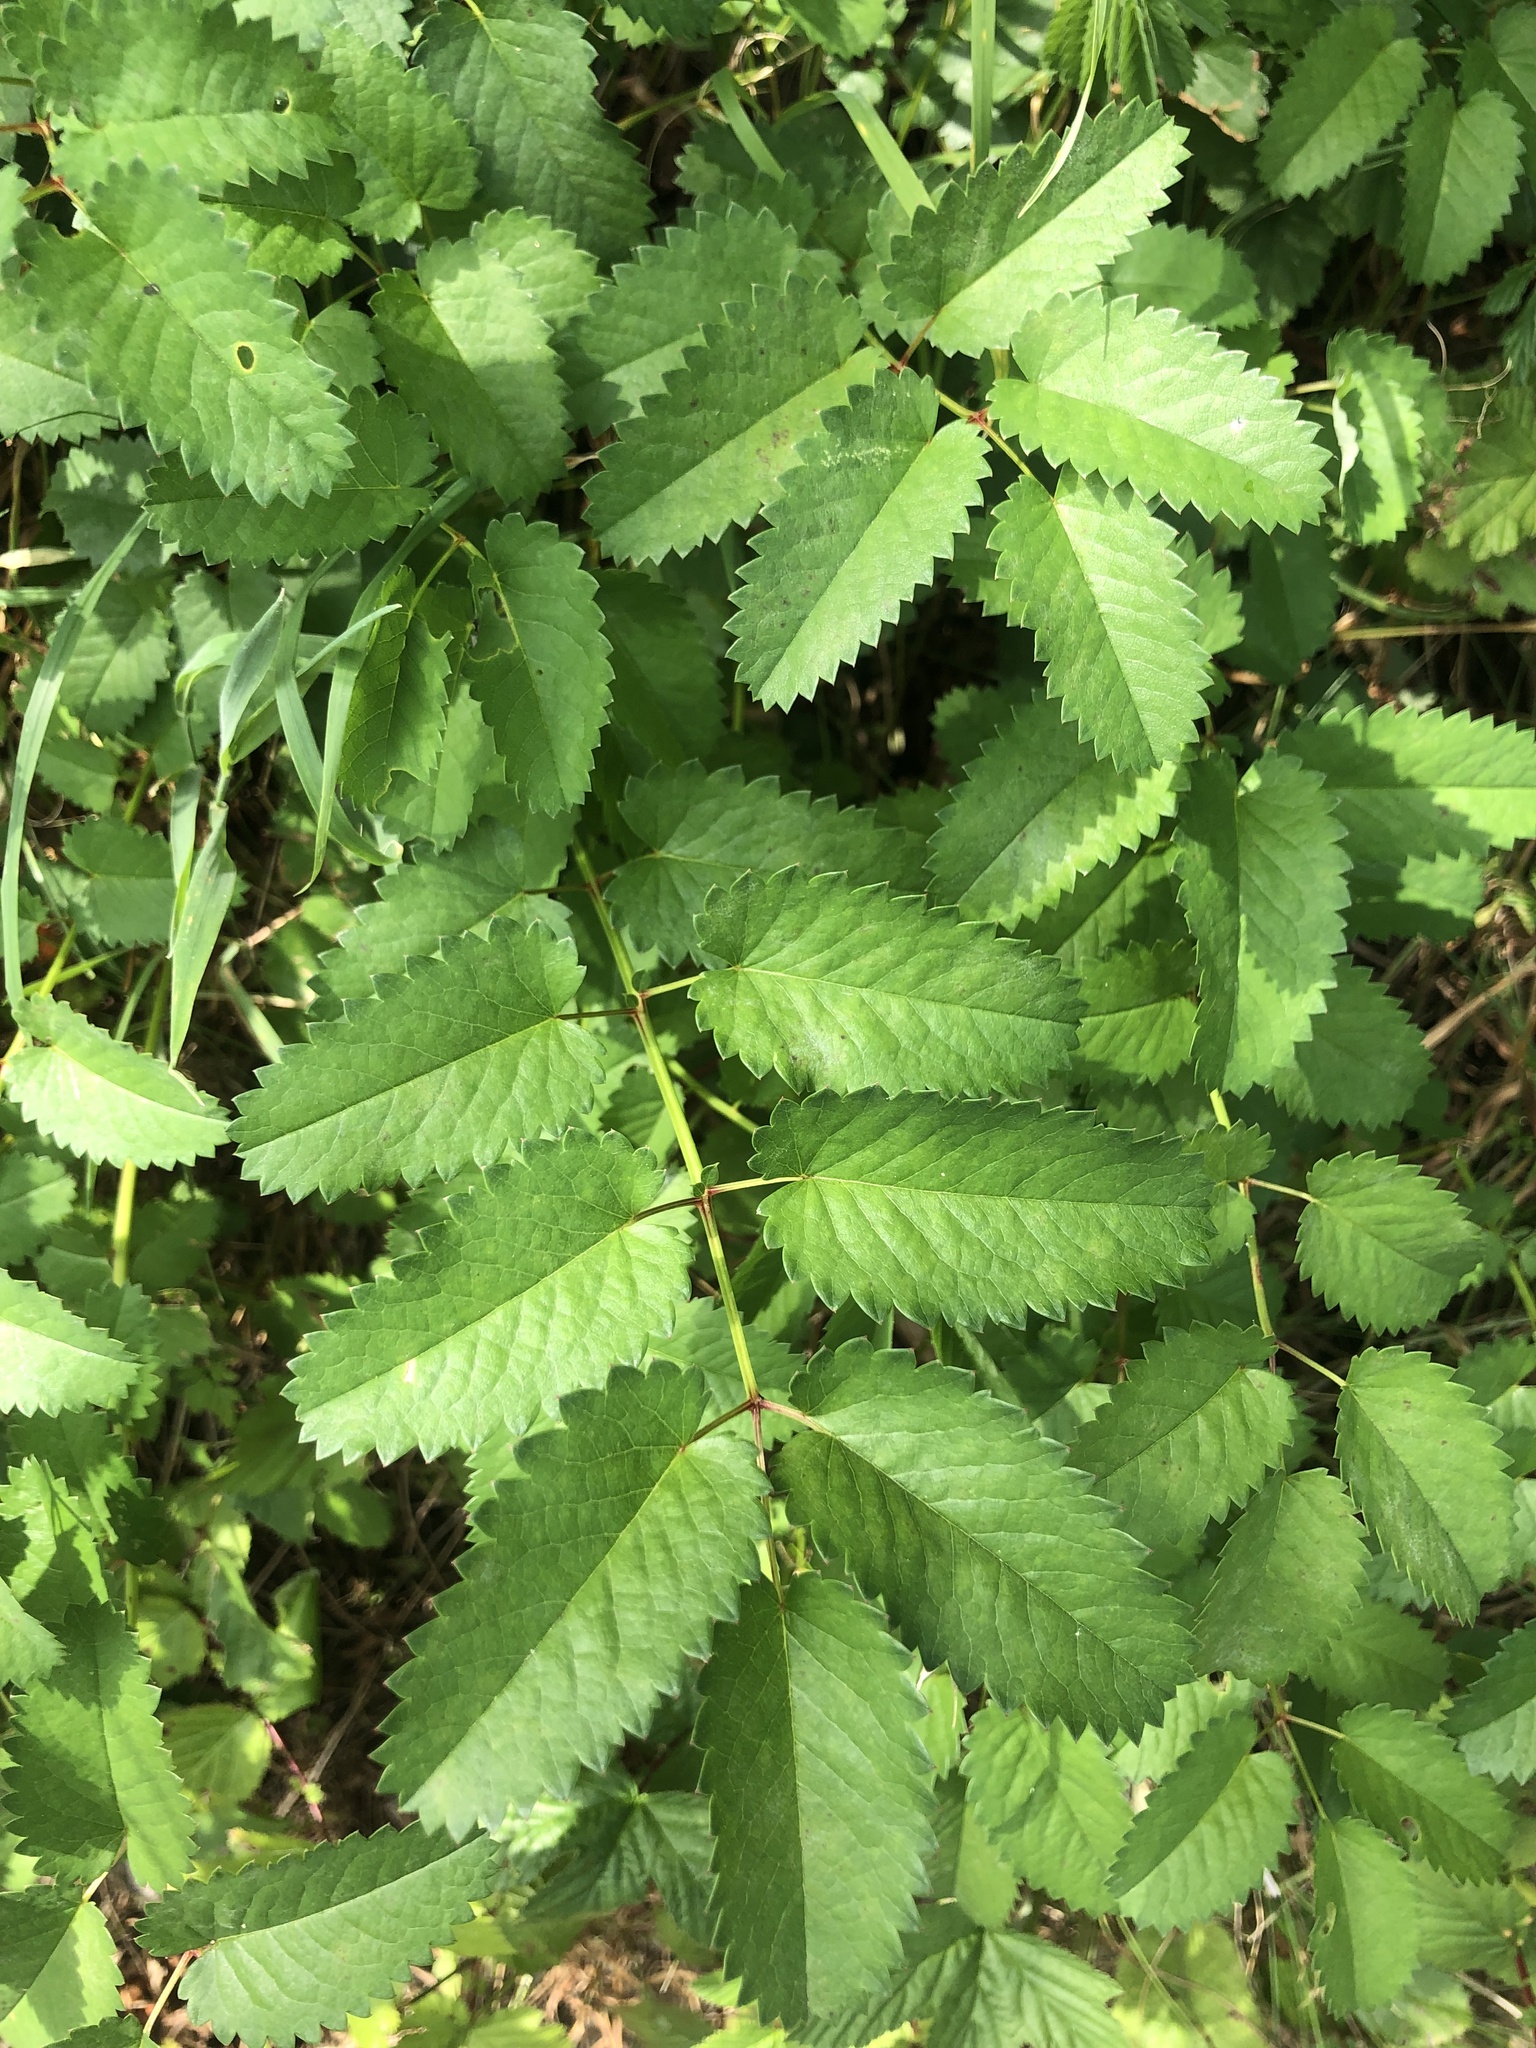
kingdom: Plantae
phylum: Tracheophyta
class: Magnoliopsida
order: Rosales
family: Rosaceae
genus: Sanguisorba
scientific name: Sanguisorba officinalis
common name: Great burnet
